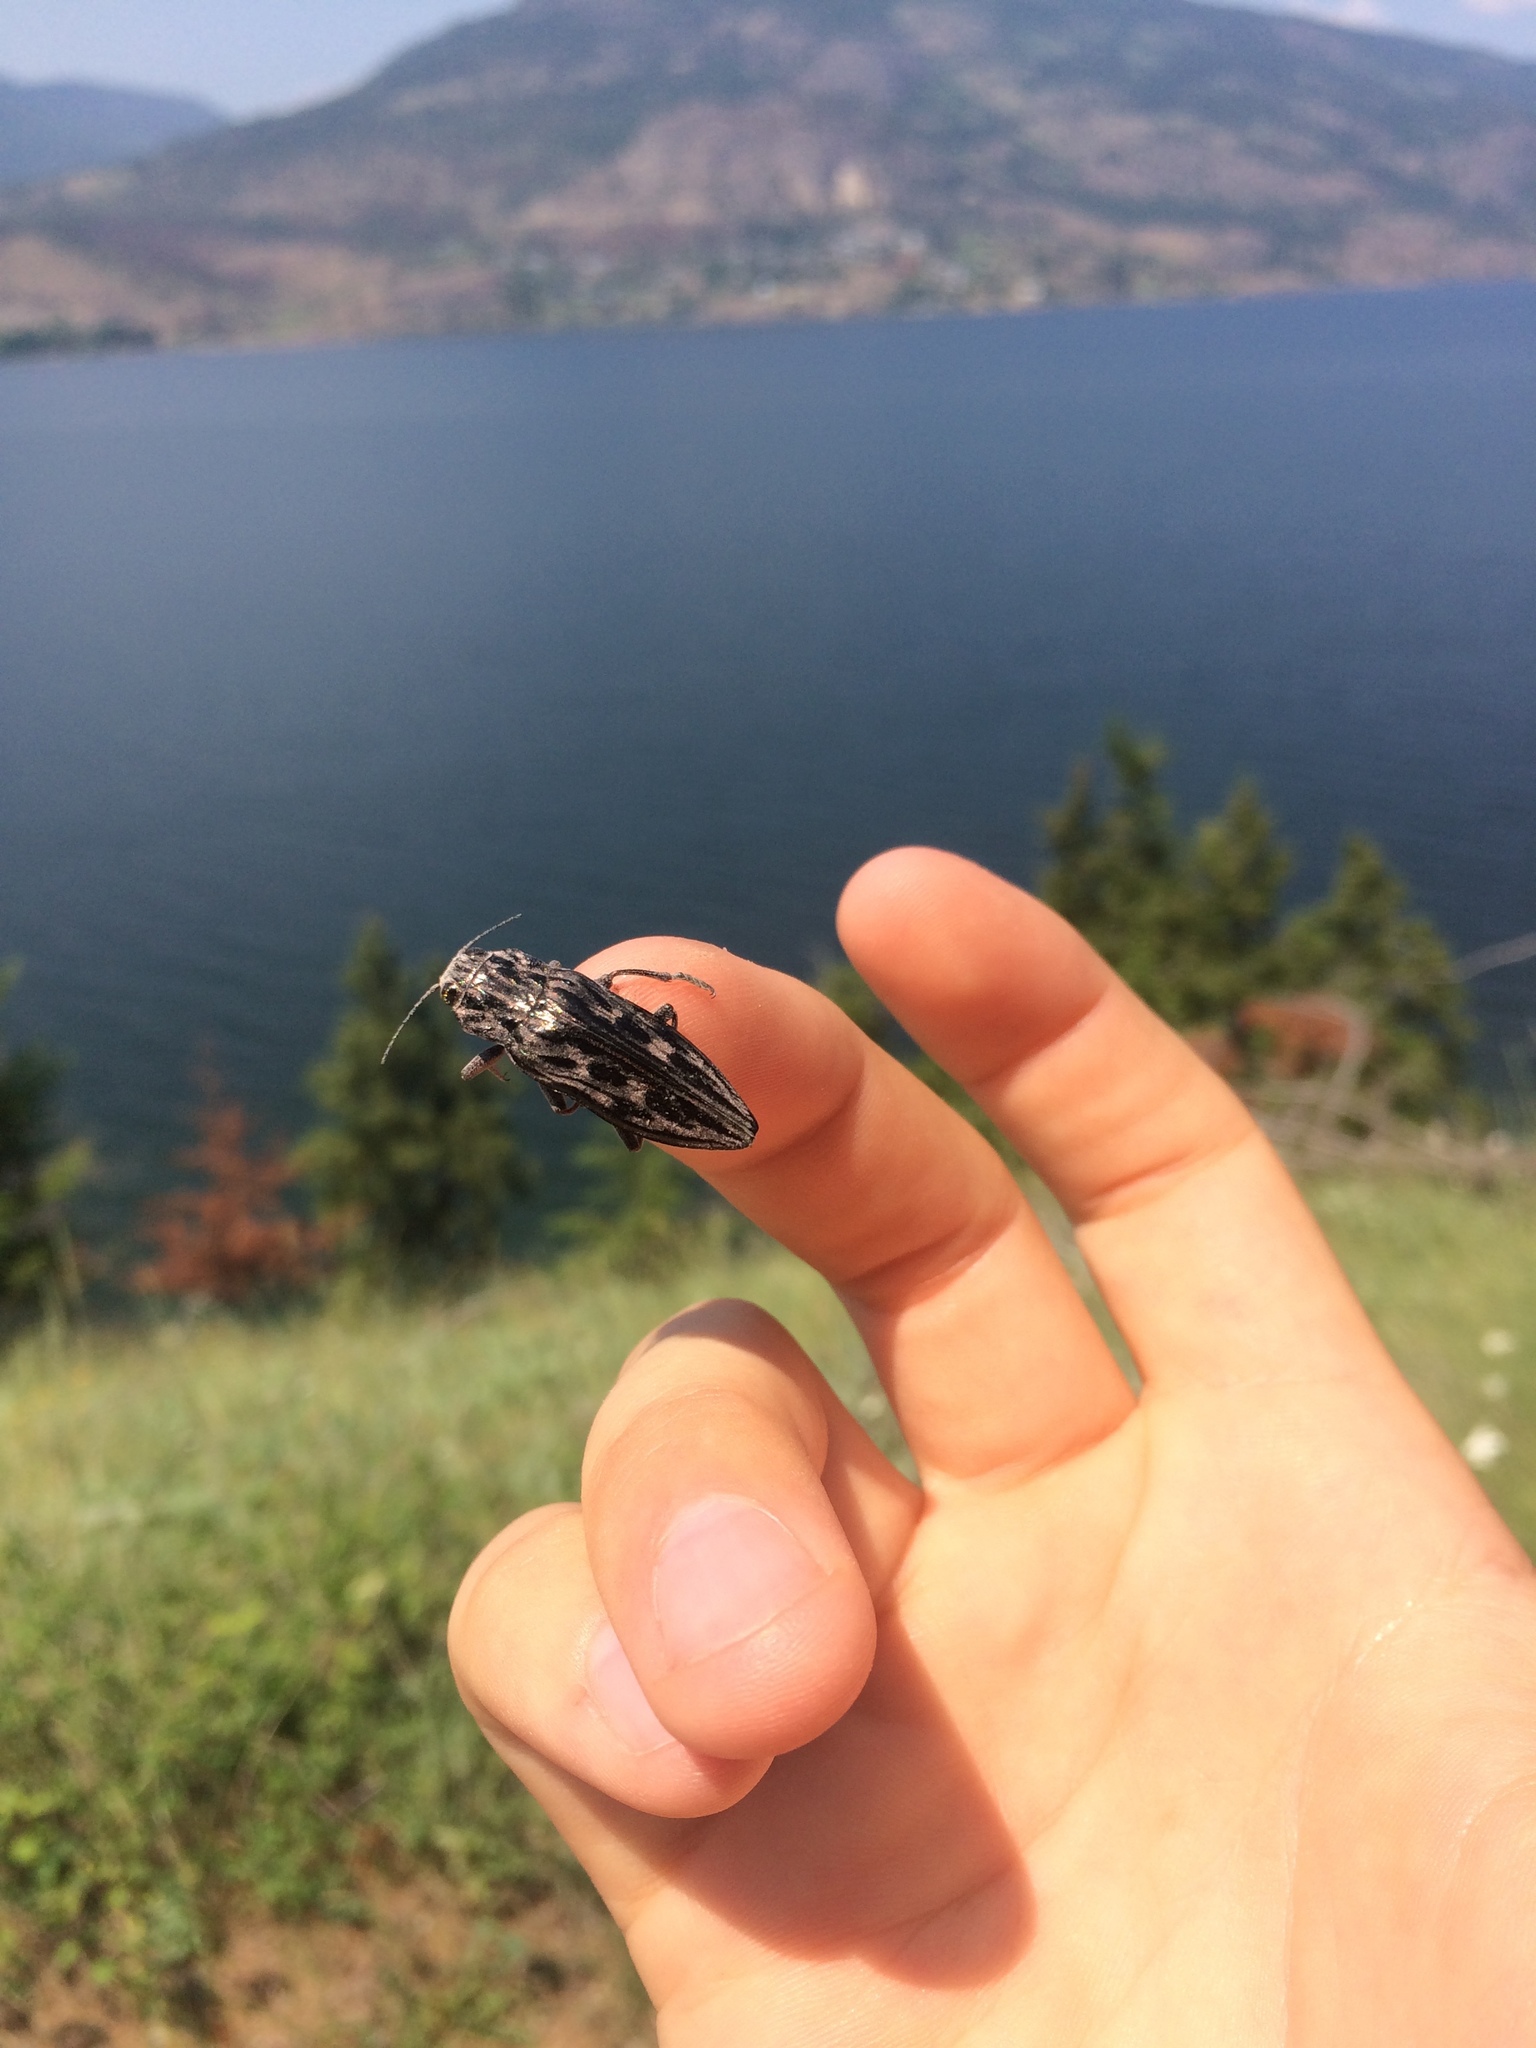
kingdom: Animalia
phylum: Arthropoda
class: Insecta
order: Coleoptera
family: Buprestidae
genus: Chalcophora
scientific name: Chalcophora angulicollis
